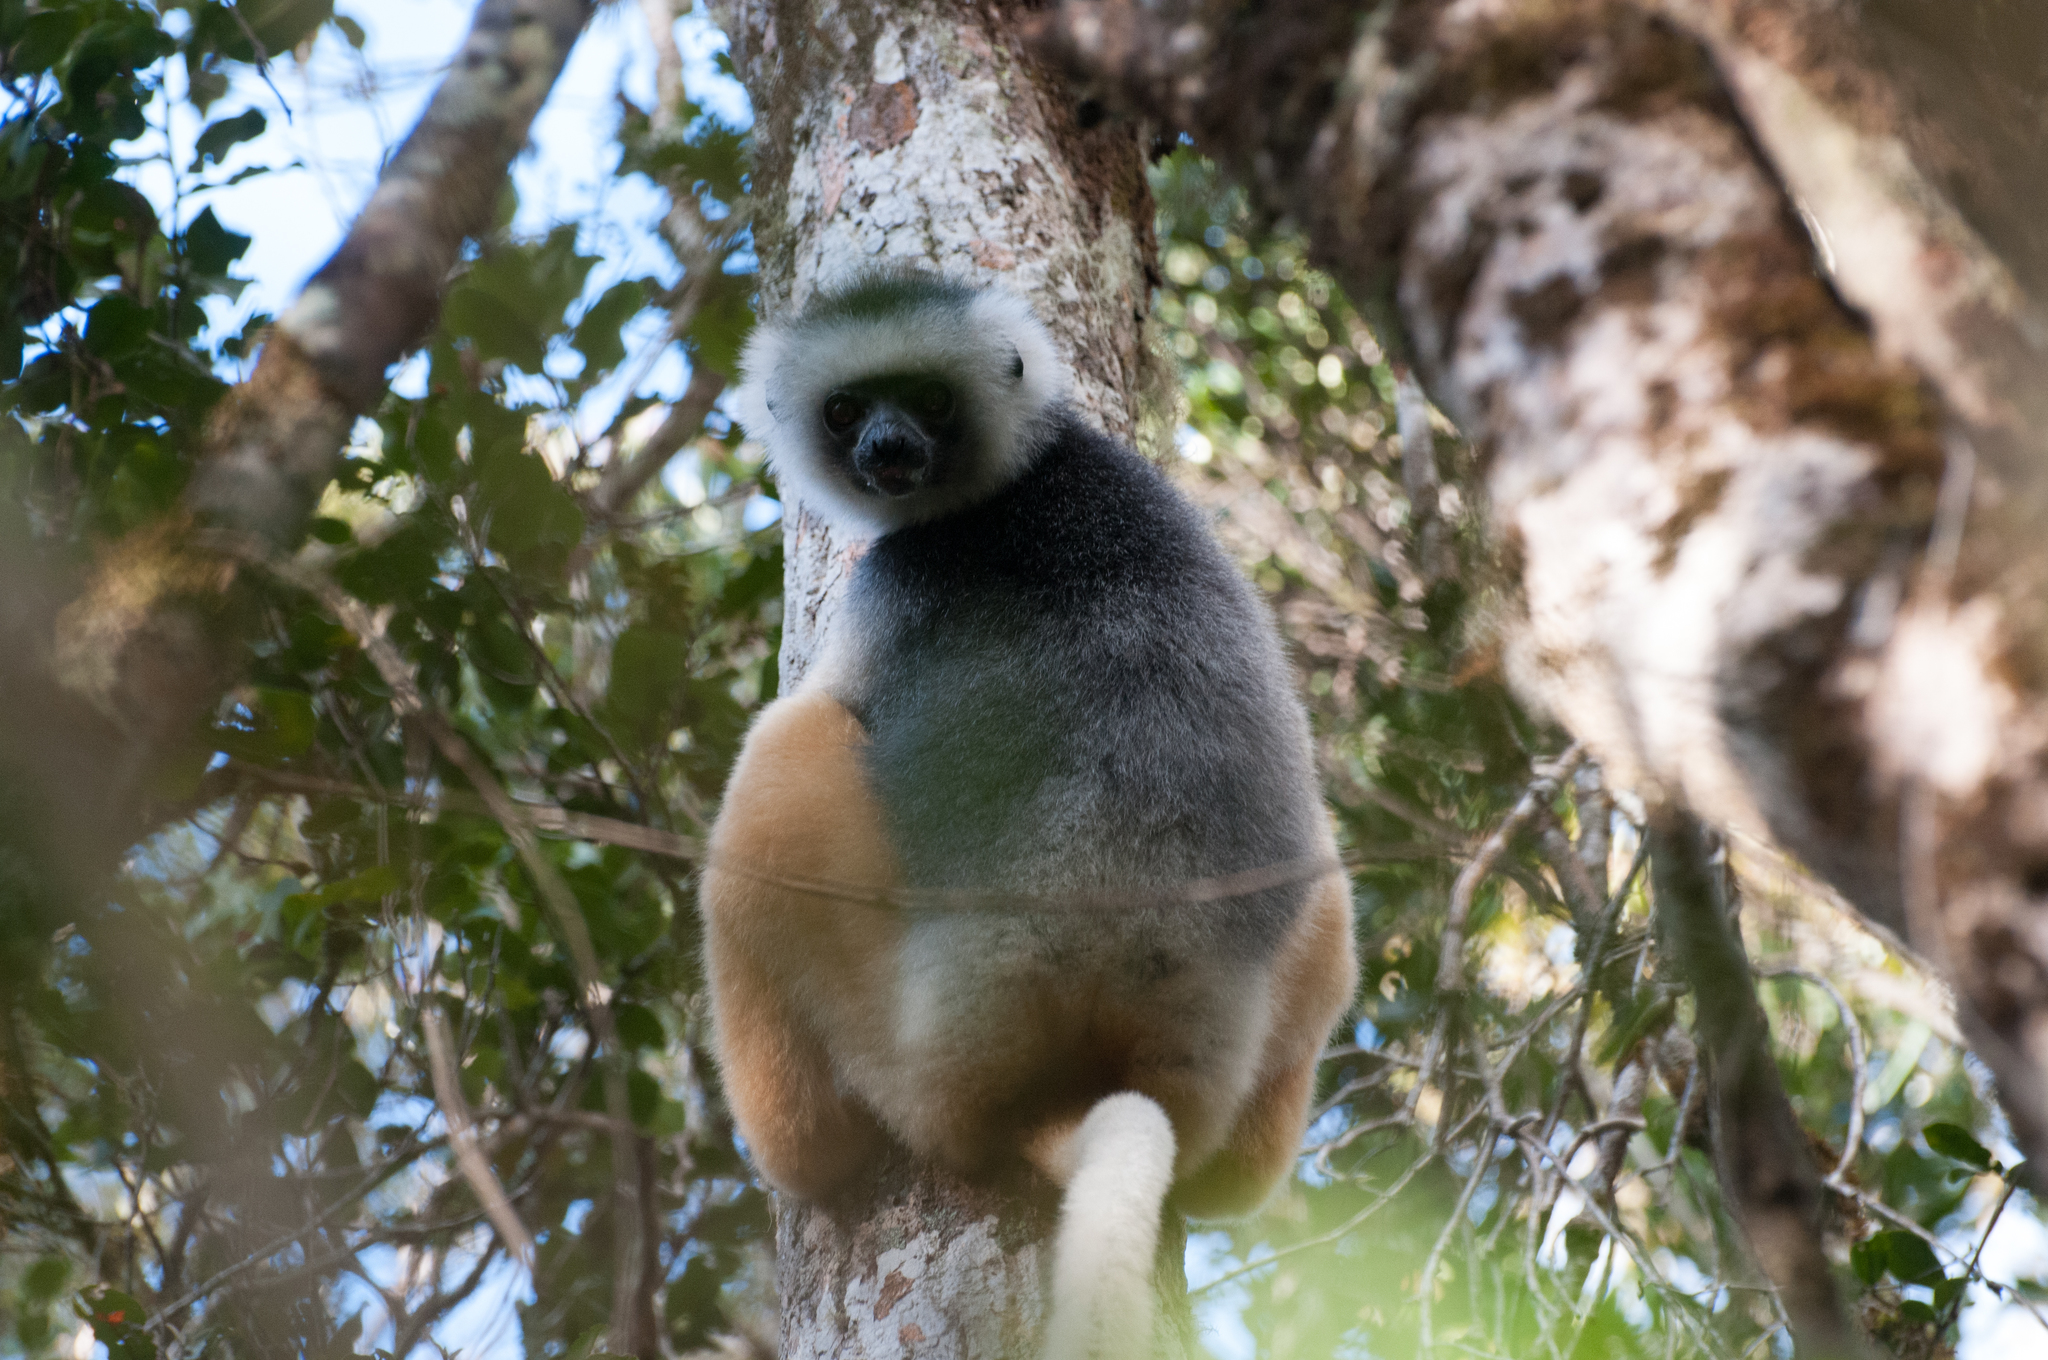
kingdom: Animalia
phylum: Chordata
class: Mammalia
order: Primates
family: Indriidae
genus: Propithecus
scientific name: Propithecus diadema
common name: Diademed sifaka
